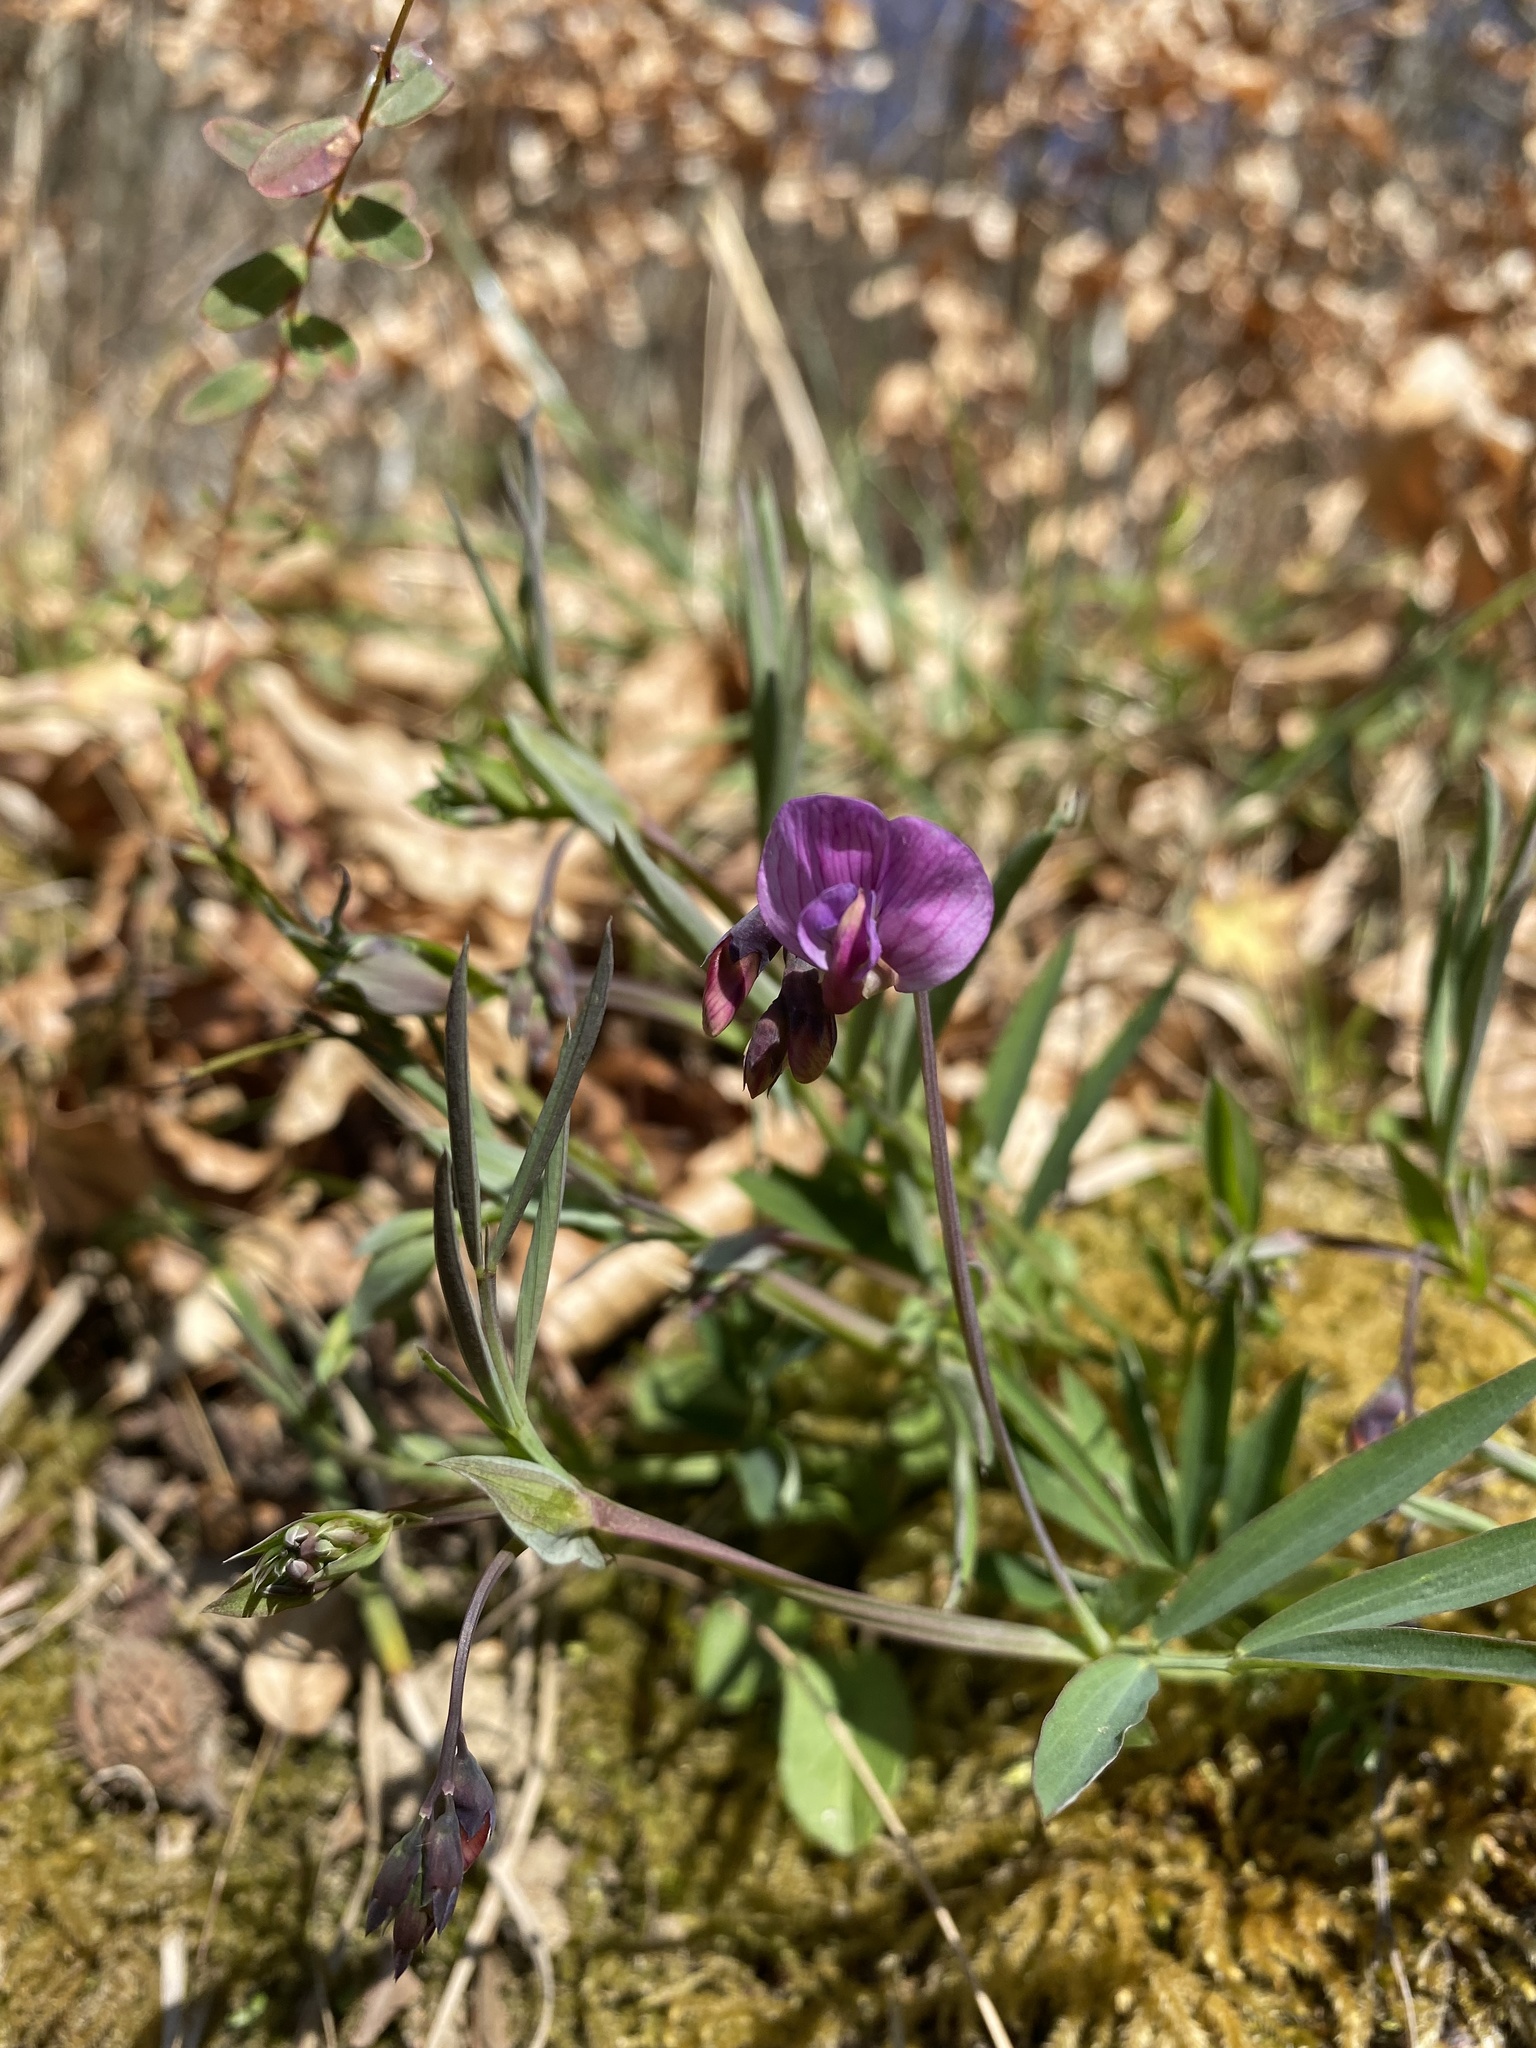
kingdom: Plantae
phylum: Tracheophyta
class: Magnoliopsida
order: Fabales
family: Fabaceae
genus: Lathyrus
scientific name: Lathyrus linifolius
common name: Bitter-vetch
